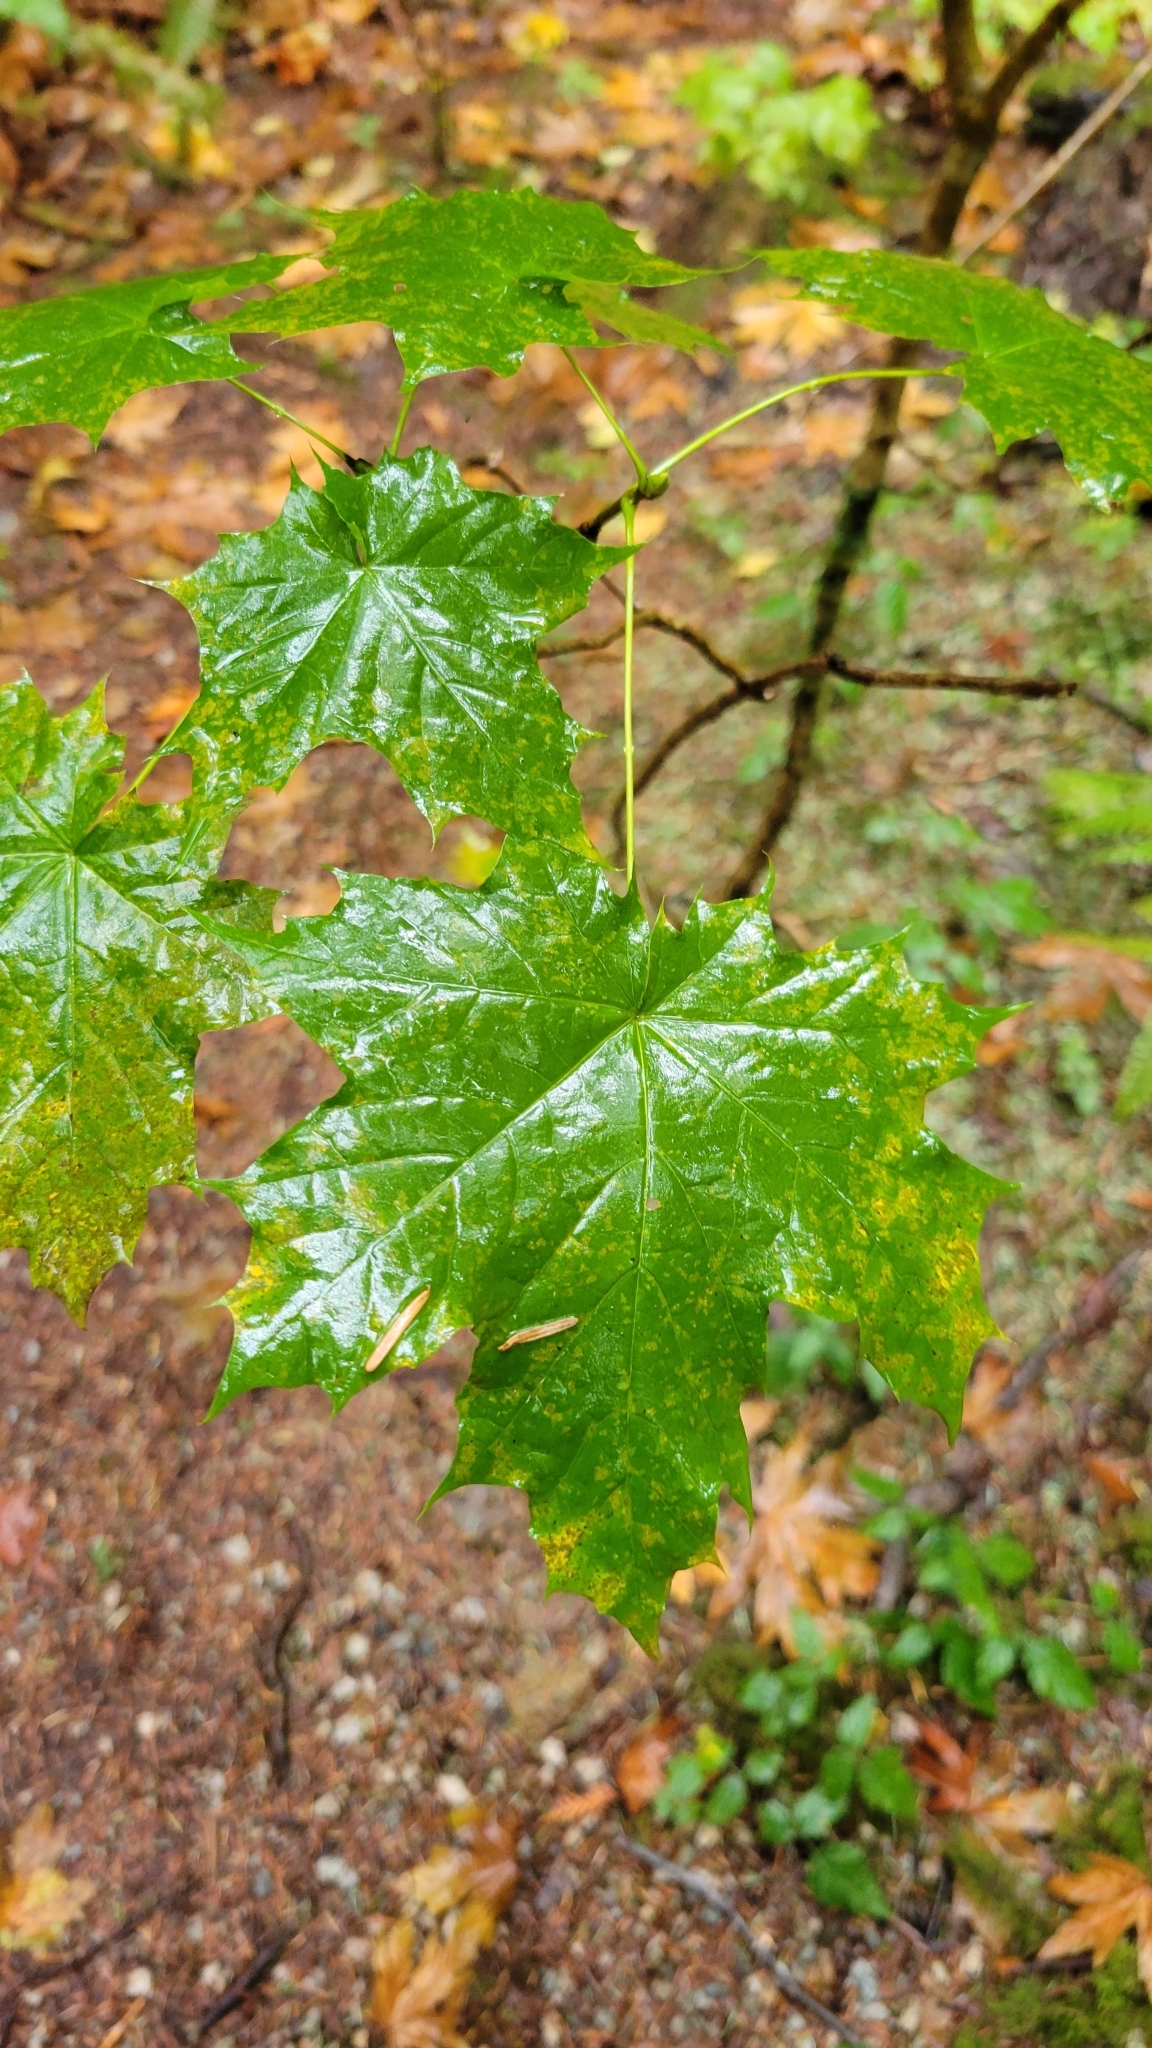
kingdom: Plantae
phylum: Tracheophyta
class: Magnoliopsida
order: Sapindales
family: Sapindaceae
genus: Acer
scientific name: Acer platanoides
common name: Norway maple
